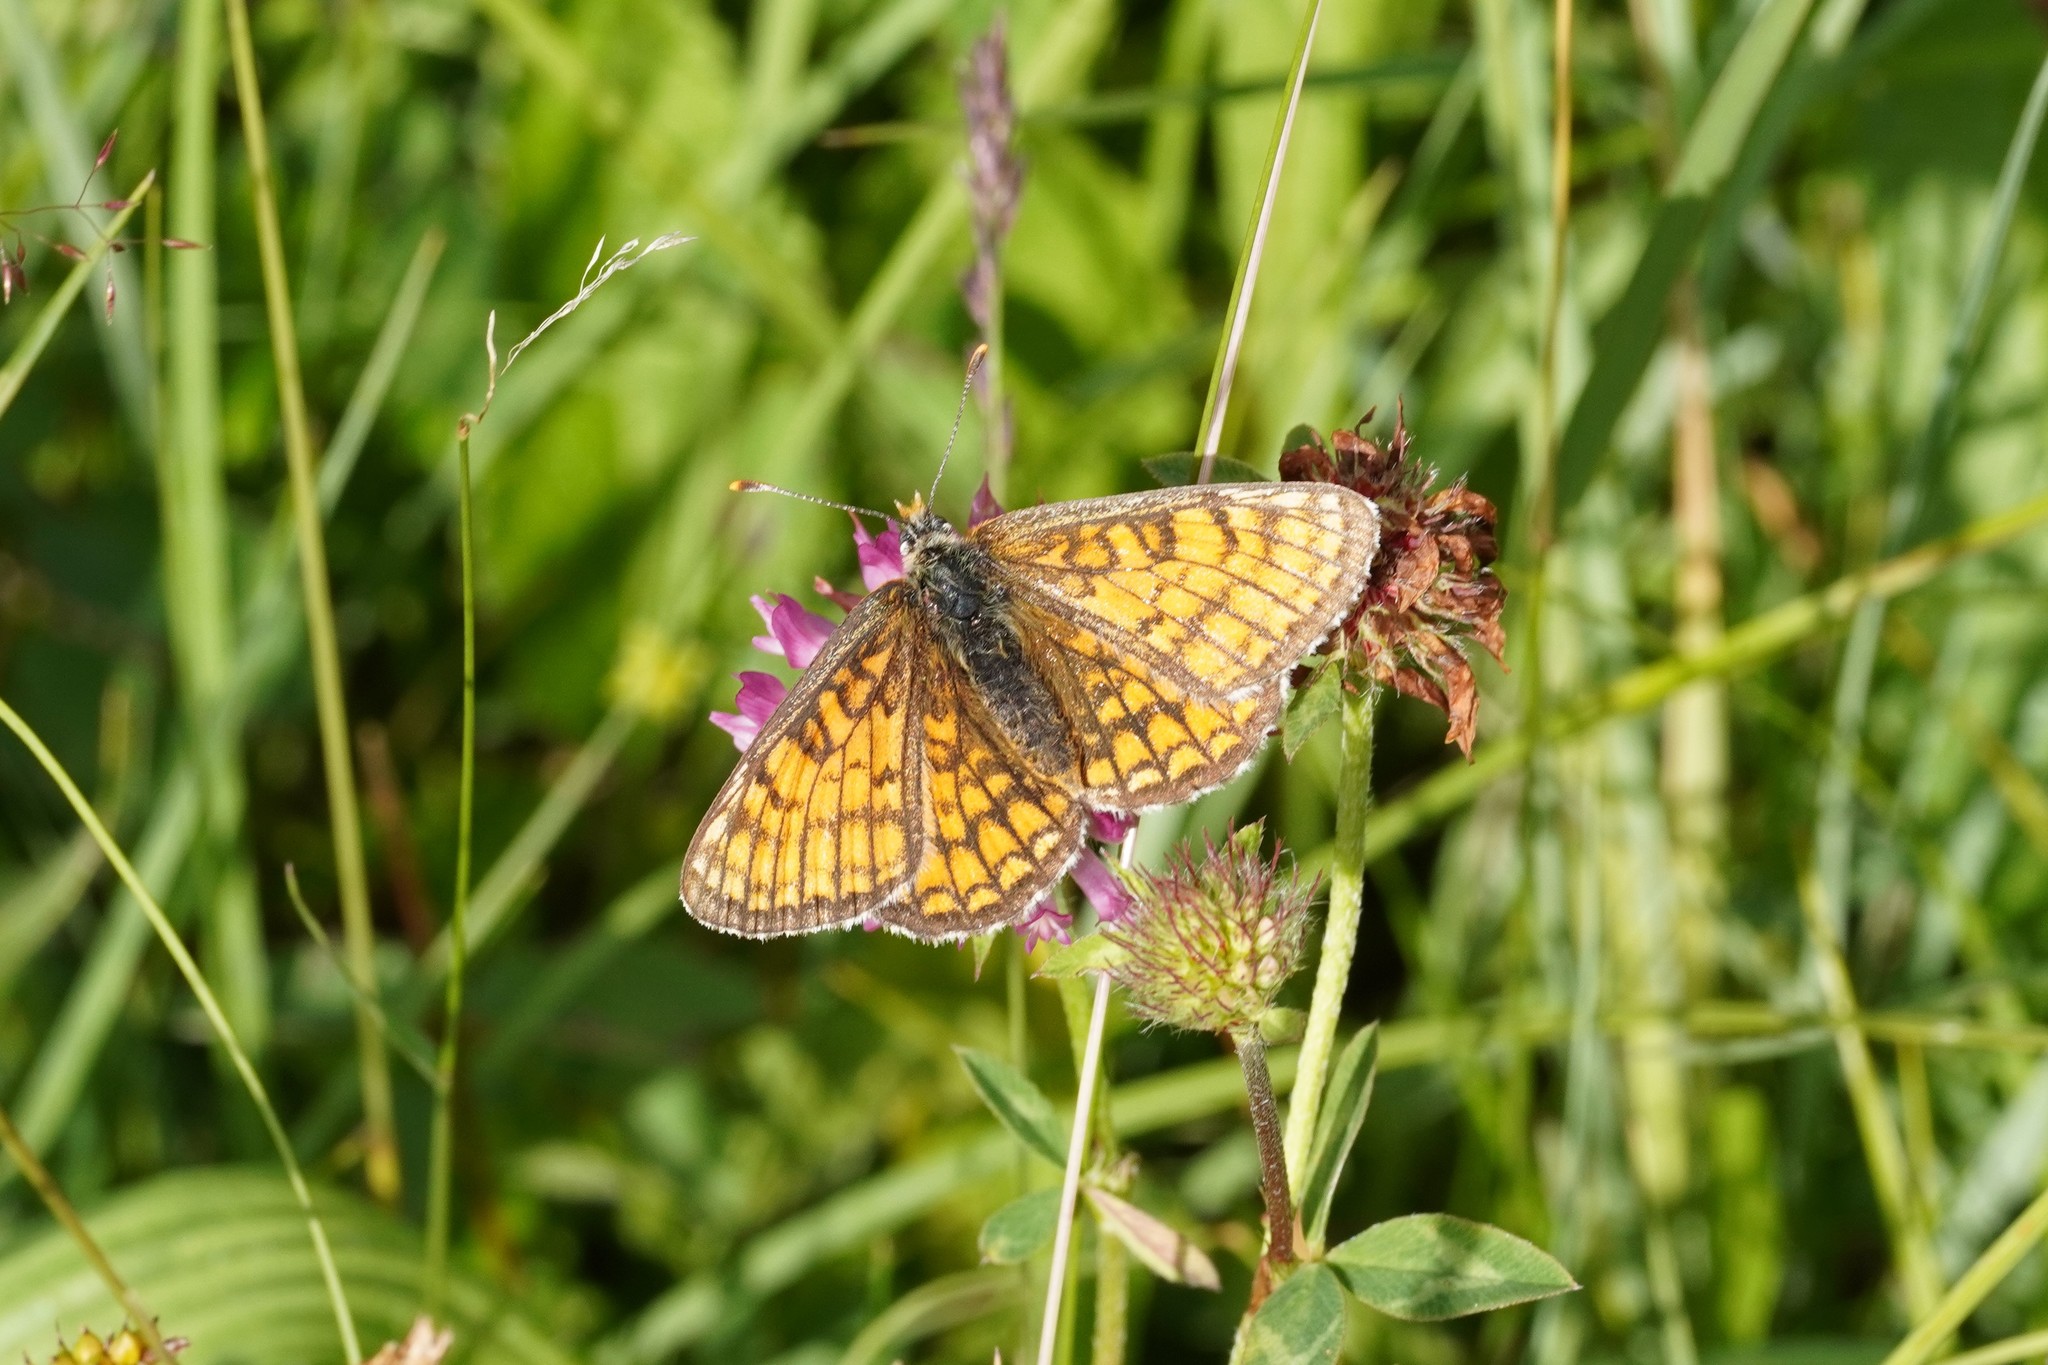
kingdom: Animalia
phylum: Arthropoda
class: Insecta
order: Lepidoptera
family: Nymphalidae
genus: Mellicta
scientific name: Mellicta parthenoides
